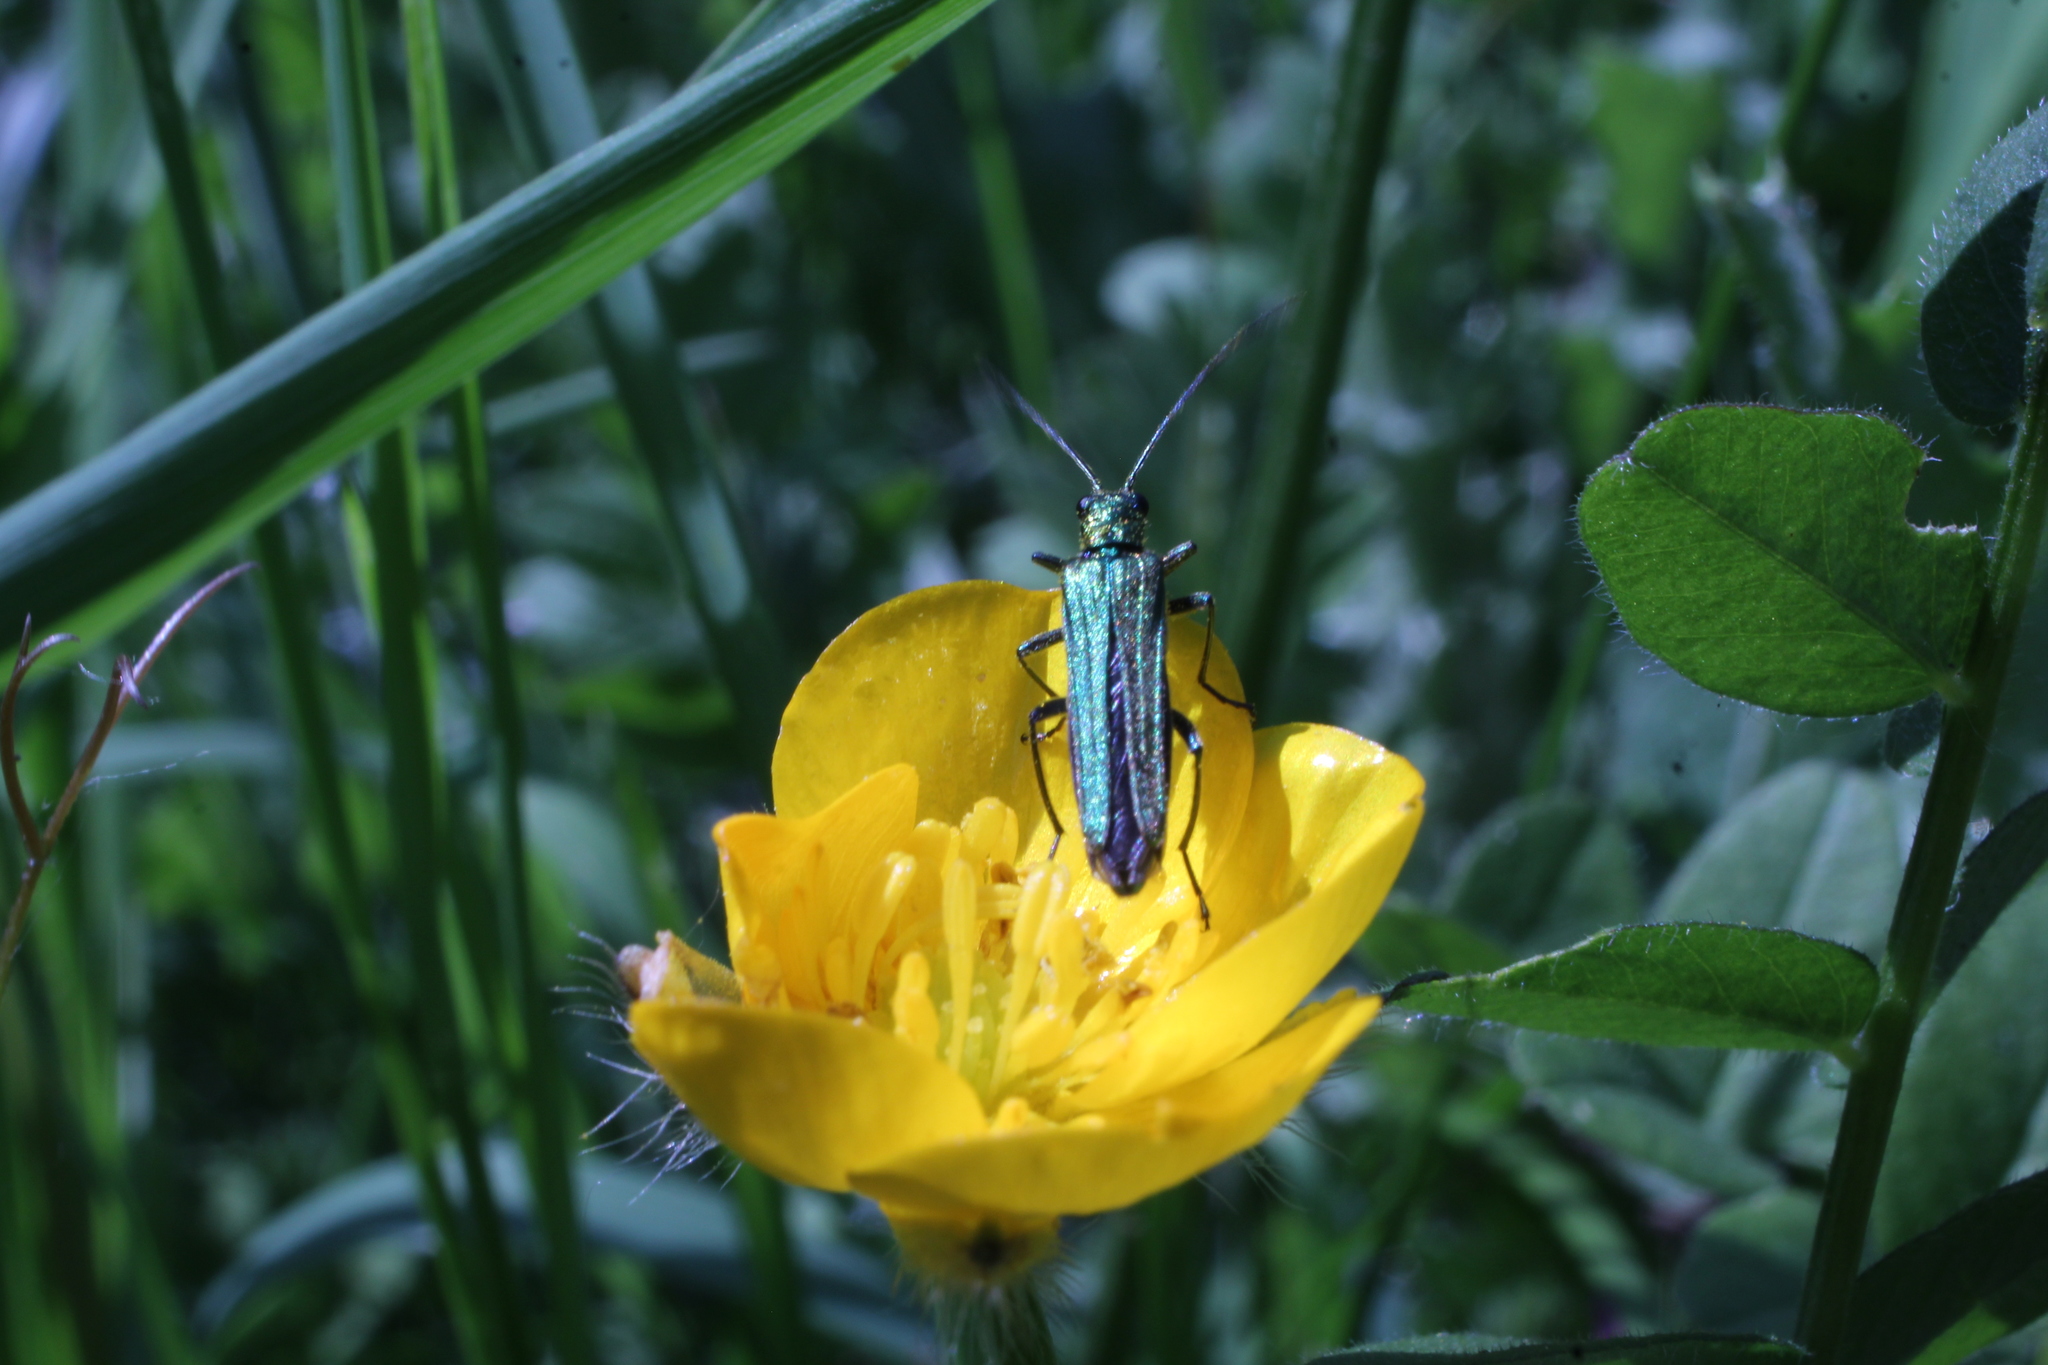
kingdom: Animalia
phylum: Arthropoda
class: Insecta
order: Coleoptera
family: Oedemeridae
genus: Oedemera
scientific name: Oedemera nobilis
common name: Swollen-thighed beetle
